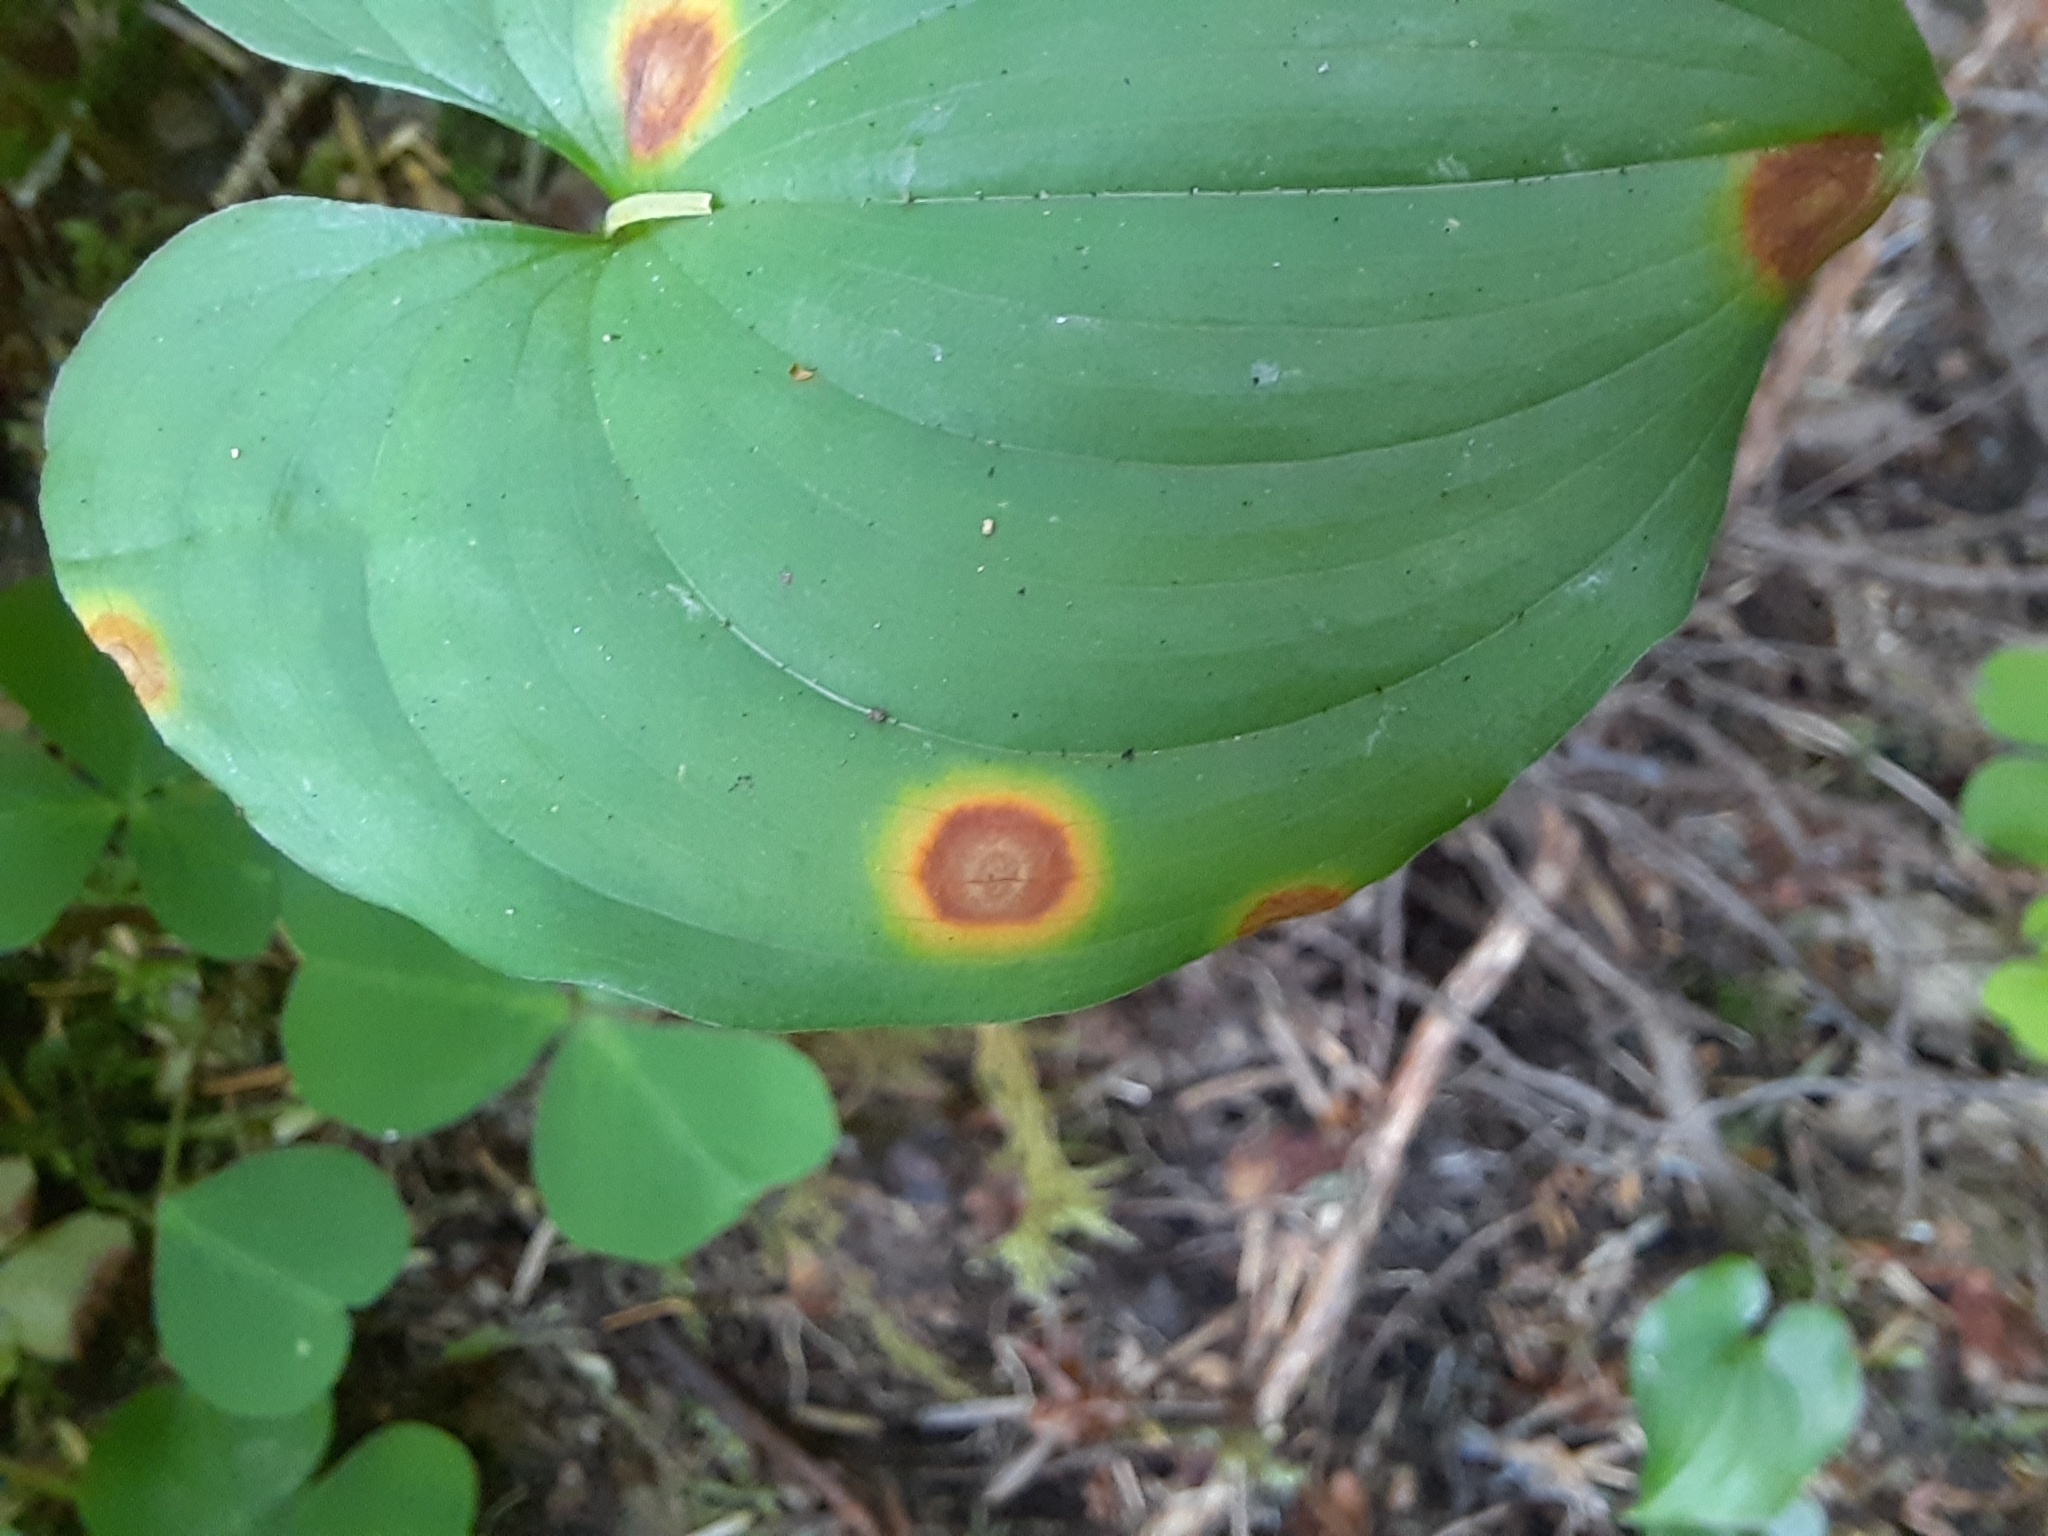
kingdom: Plantae
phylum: Tracheophyta
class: Liliopsida
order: Asparagales
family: Asparagaceae
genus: Maianthemum
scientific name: Maianthemum dilatatum
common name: False lily-of-the-valley
